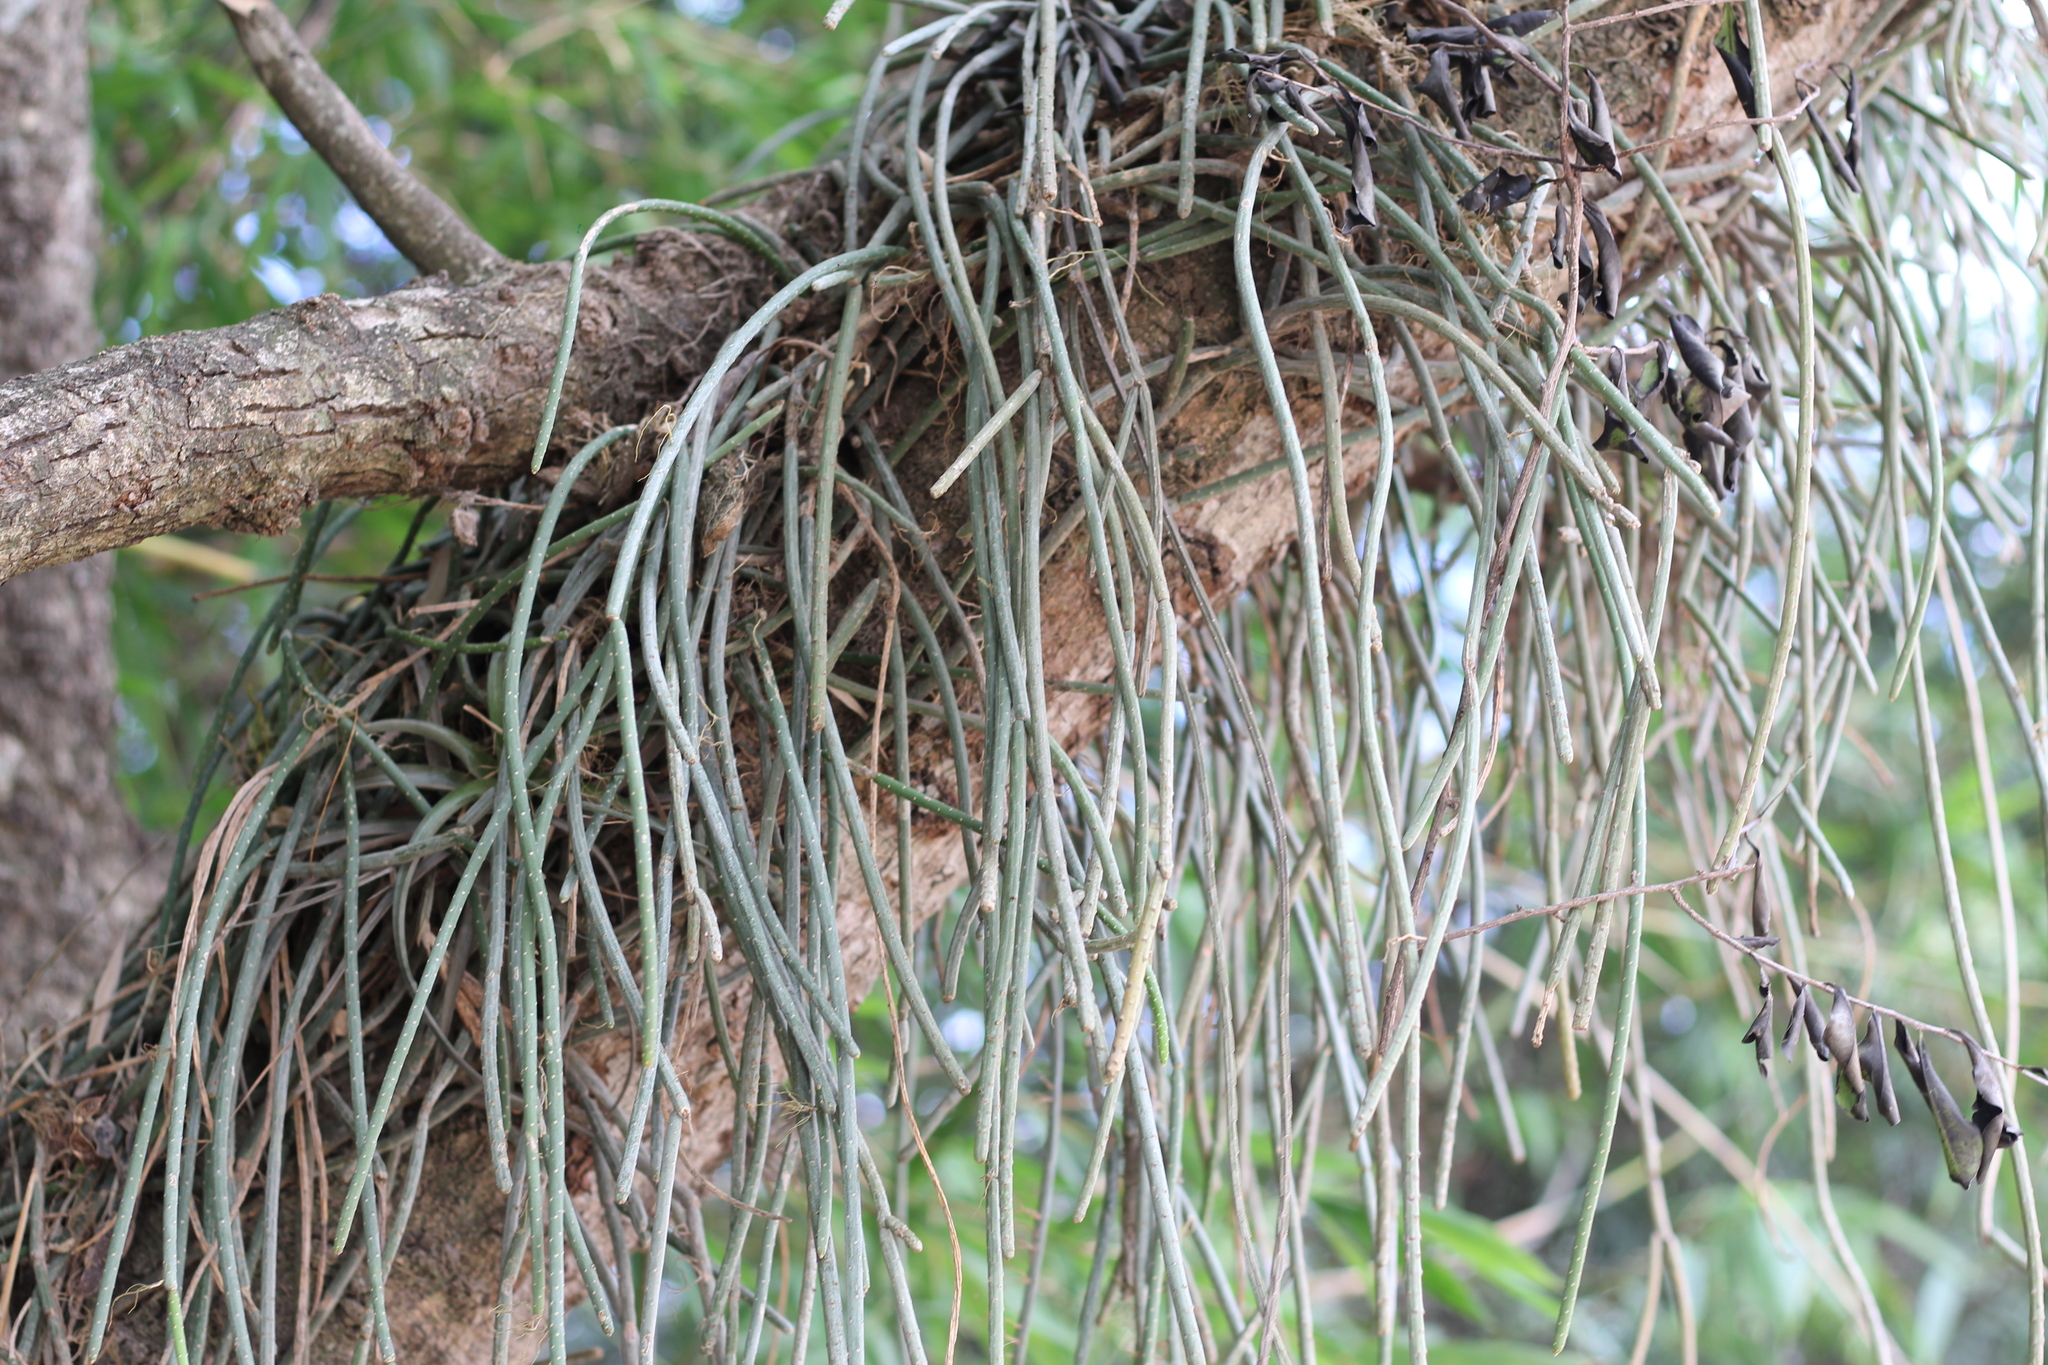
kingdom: Plantae
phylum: Tracheophyta
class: Magnoliopsida
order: Caryophyllales
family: Cactaceae
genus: Lepismium
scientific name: Lepismium lumbricoides
